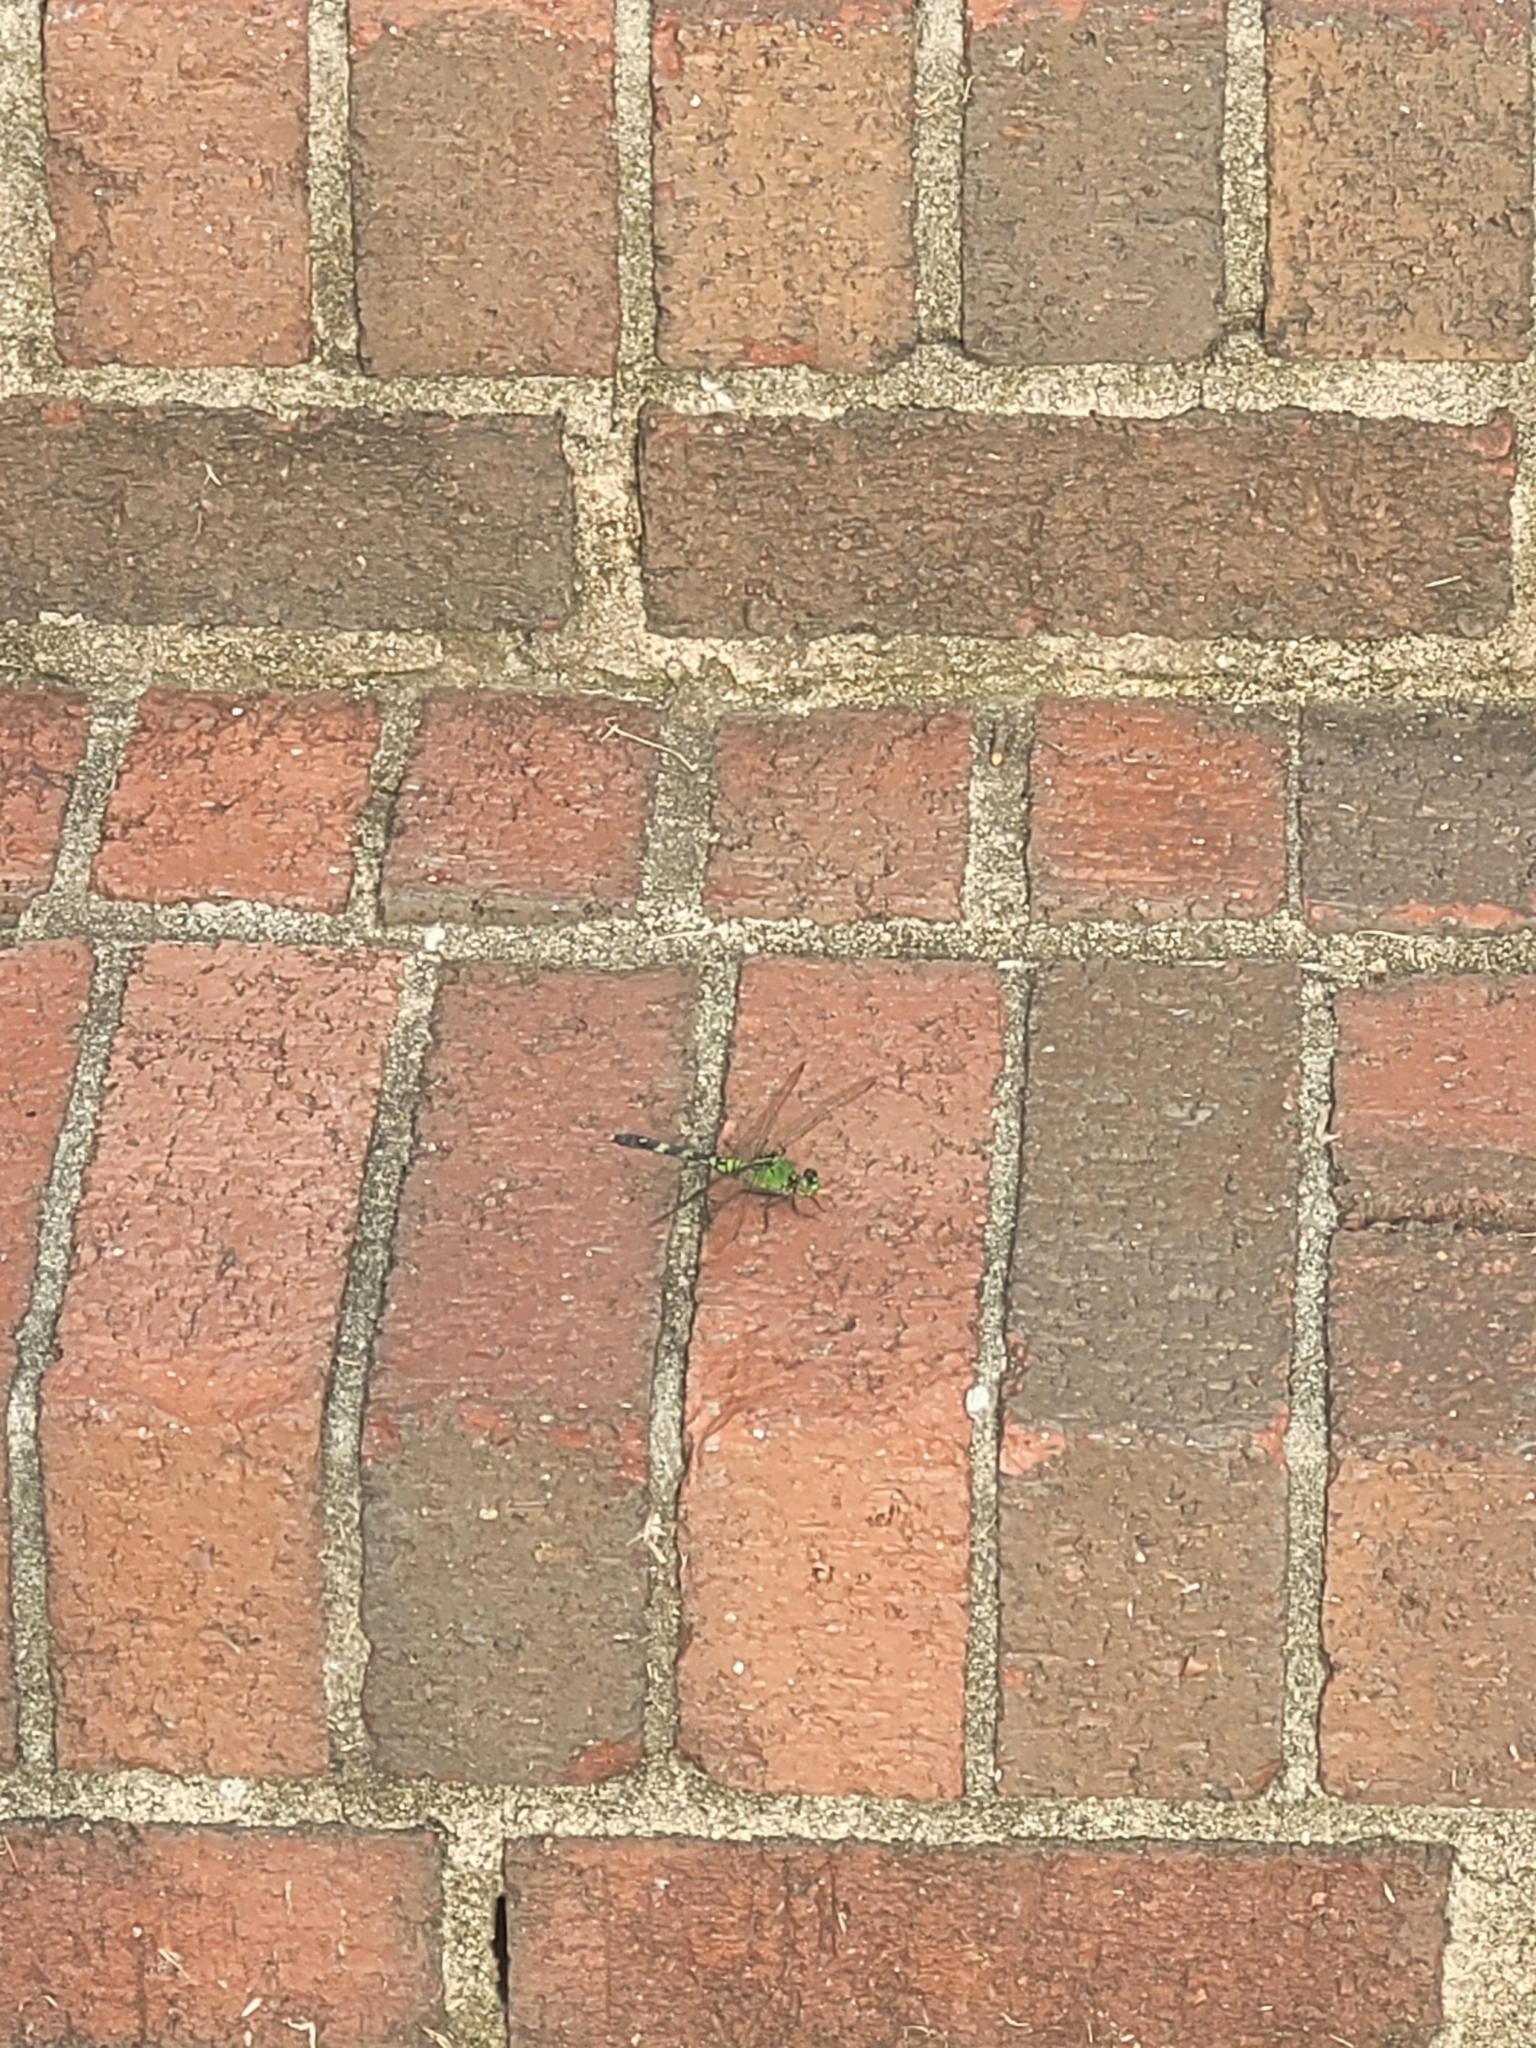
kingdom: Animalia
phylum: Arthropoda
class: Insecta
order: Odonata
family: Libellulidae
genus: Erythemis
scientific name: Erythemis simplicicollis
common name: Eastern pondhawk
